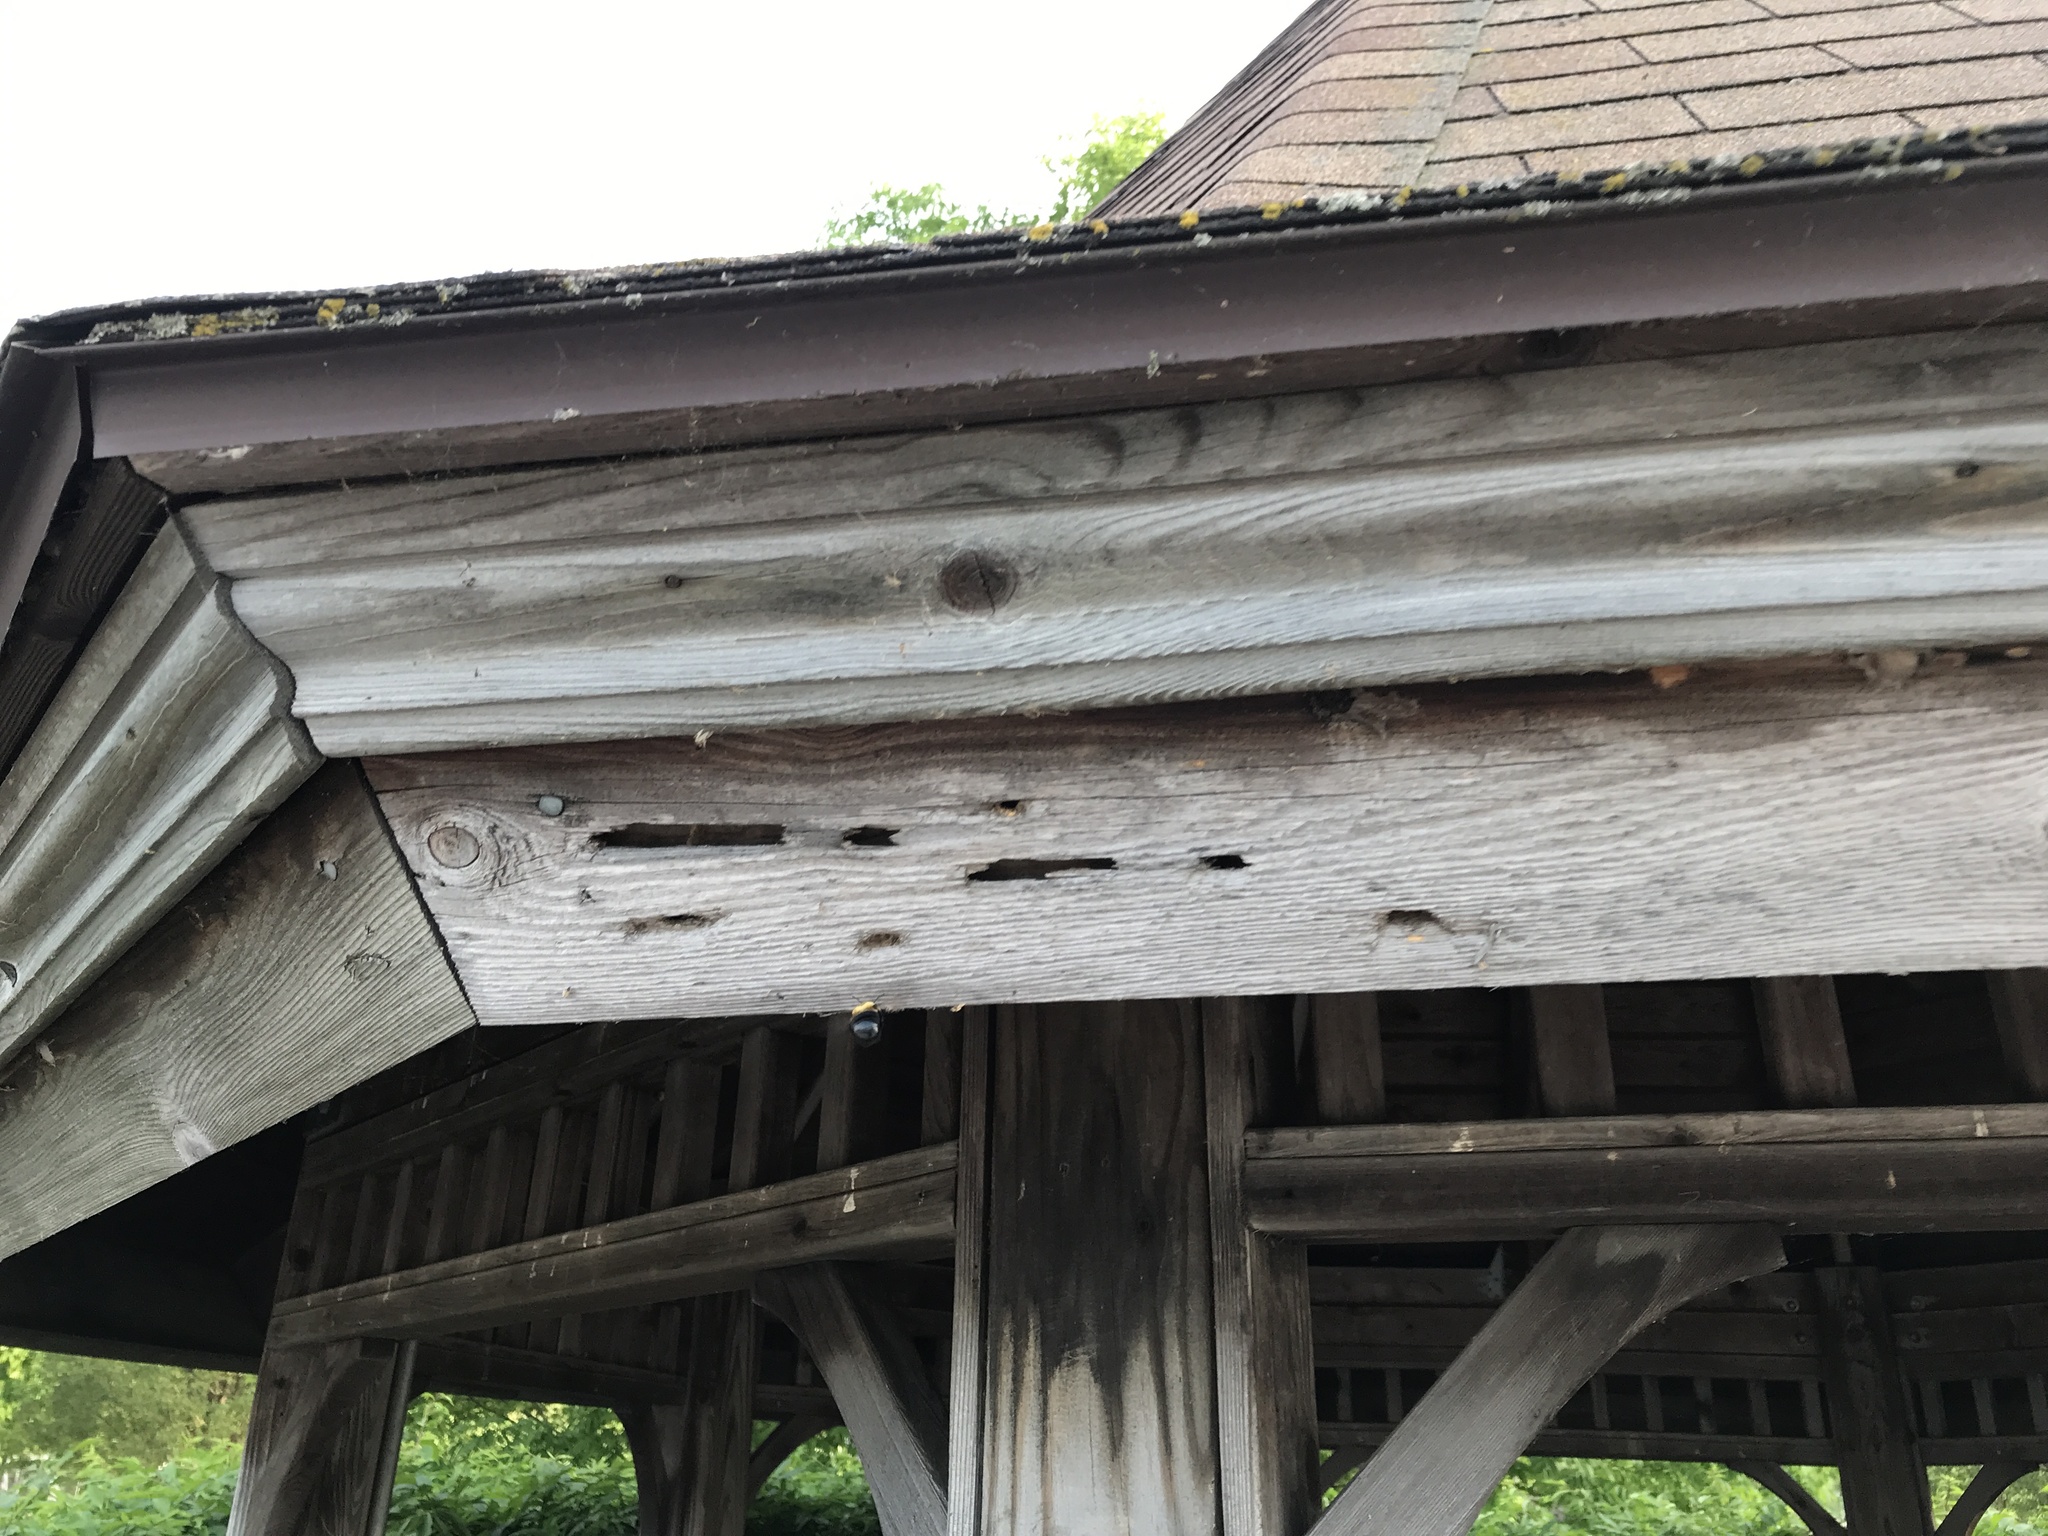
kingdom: Animalia
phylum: Arthropoda
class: Insecta
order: Hymenoptera
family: Apidae
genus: Xylocopa
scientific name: Xylocopa virginica
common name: Carpenter bee
